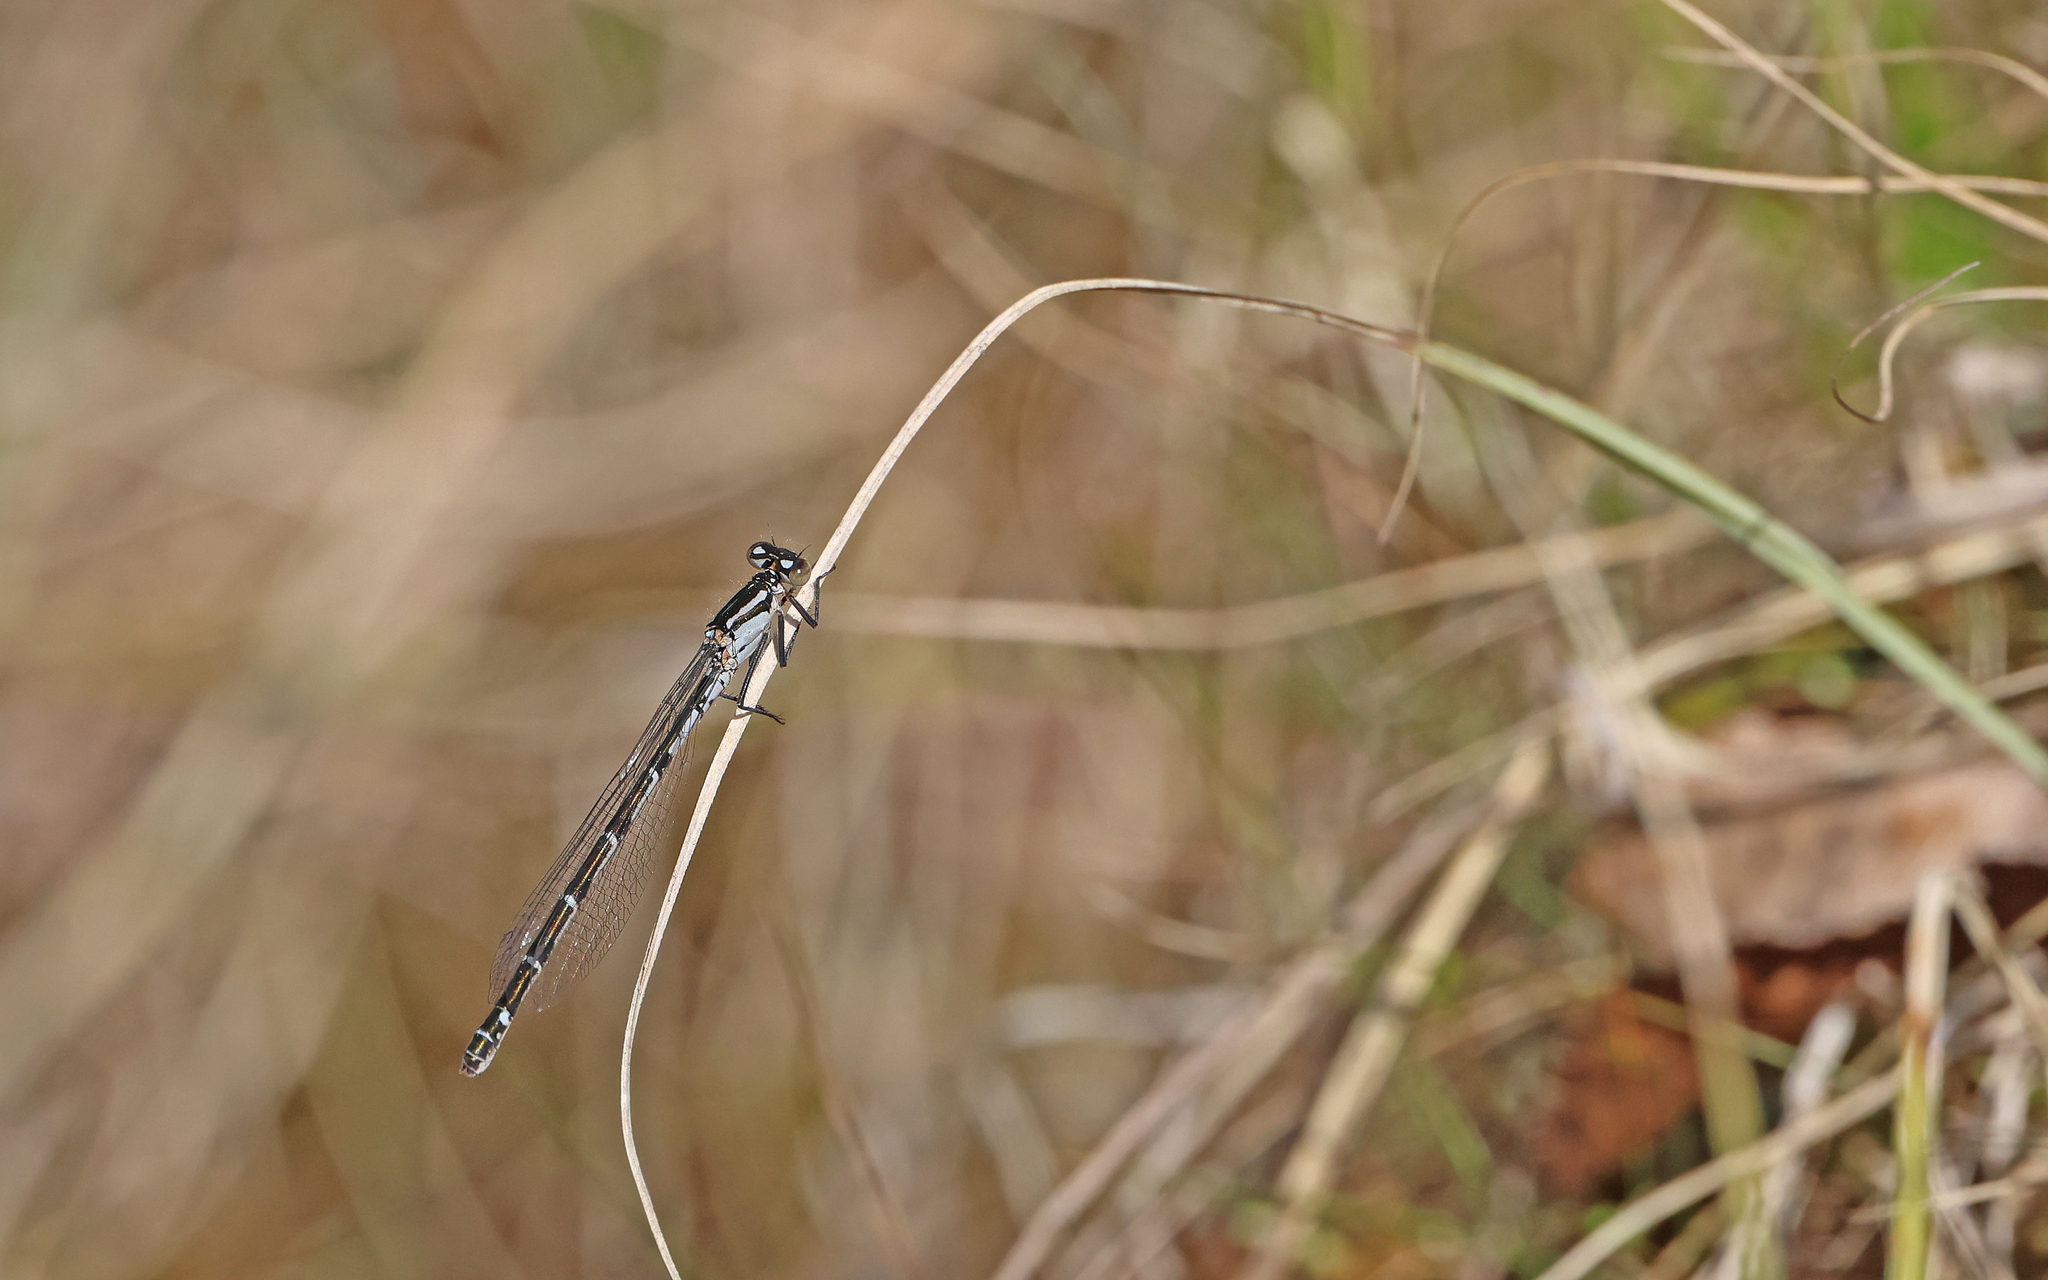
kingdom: Animalia
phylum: Arthropoda
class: Insecta
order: Odonata
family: Coenagrionidae
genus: Enallagma
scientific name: Enallagma cyathigerum
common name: Common blue damselfly
